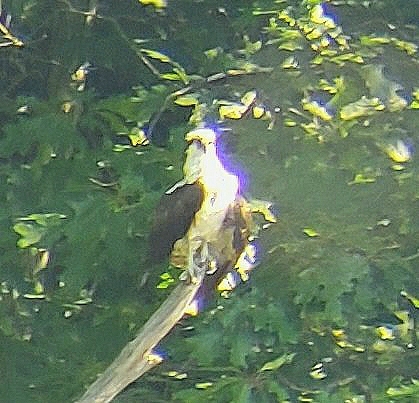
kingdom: Animalia
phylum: Chordata
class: Aves
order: Accipitriformes
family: Pandionidae
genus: Pandion
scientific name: Pandion haliaetus
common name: Osprey
